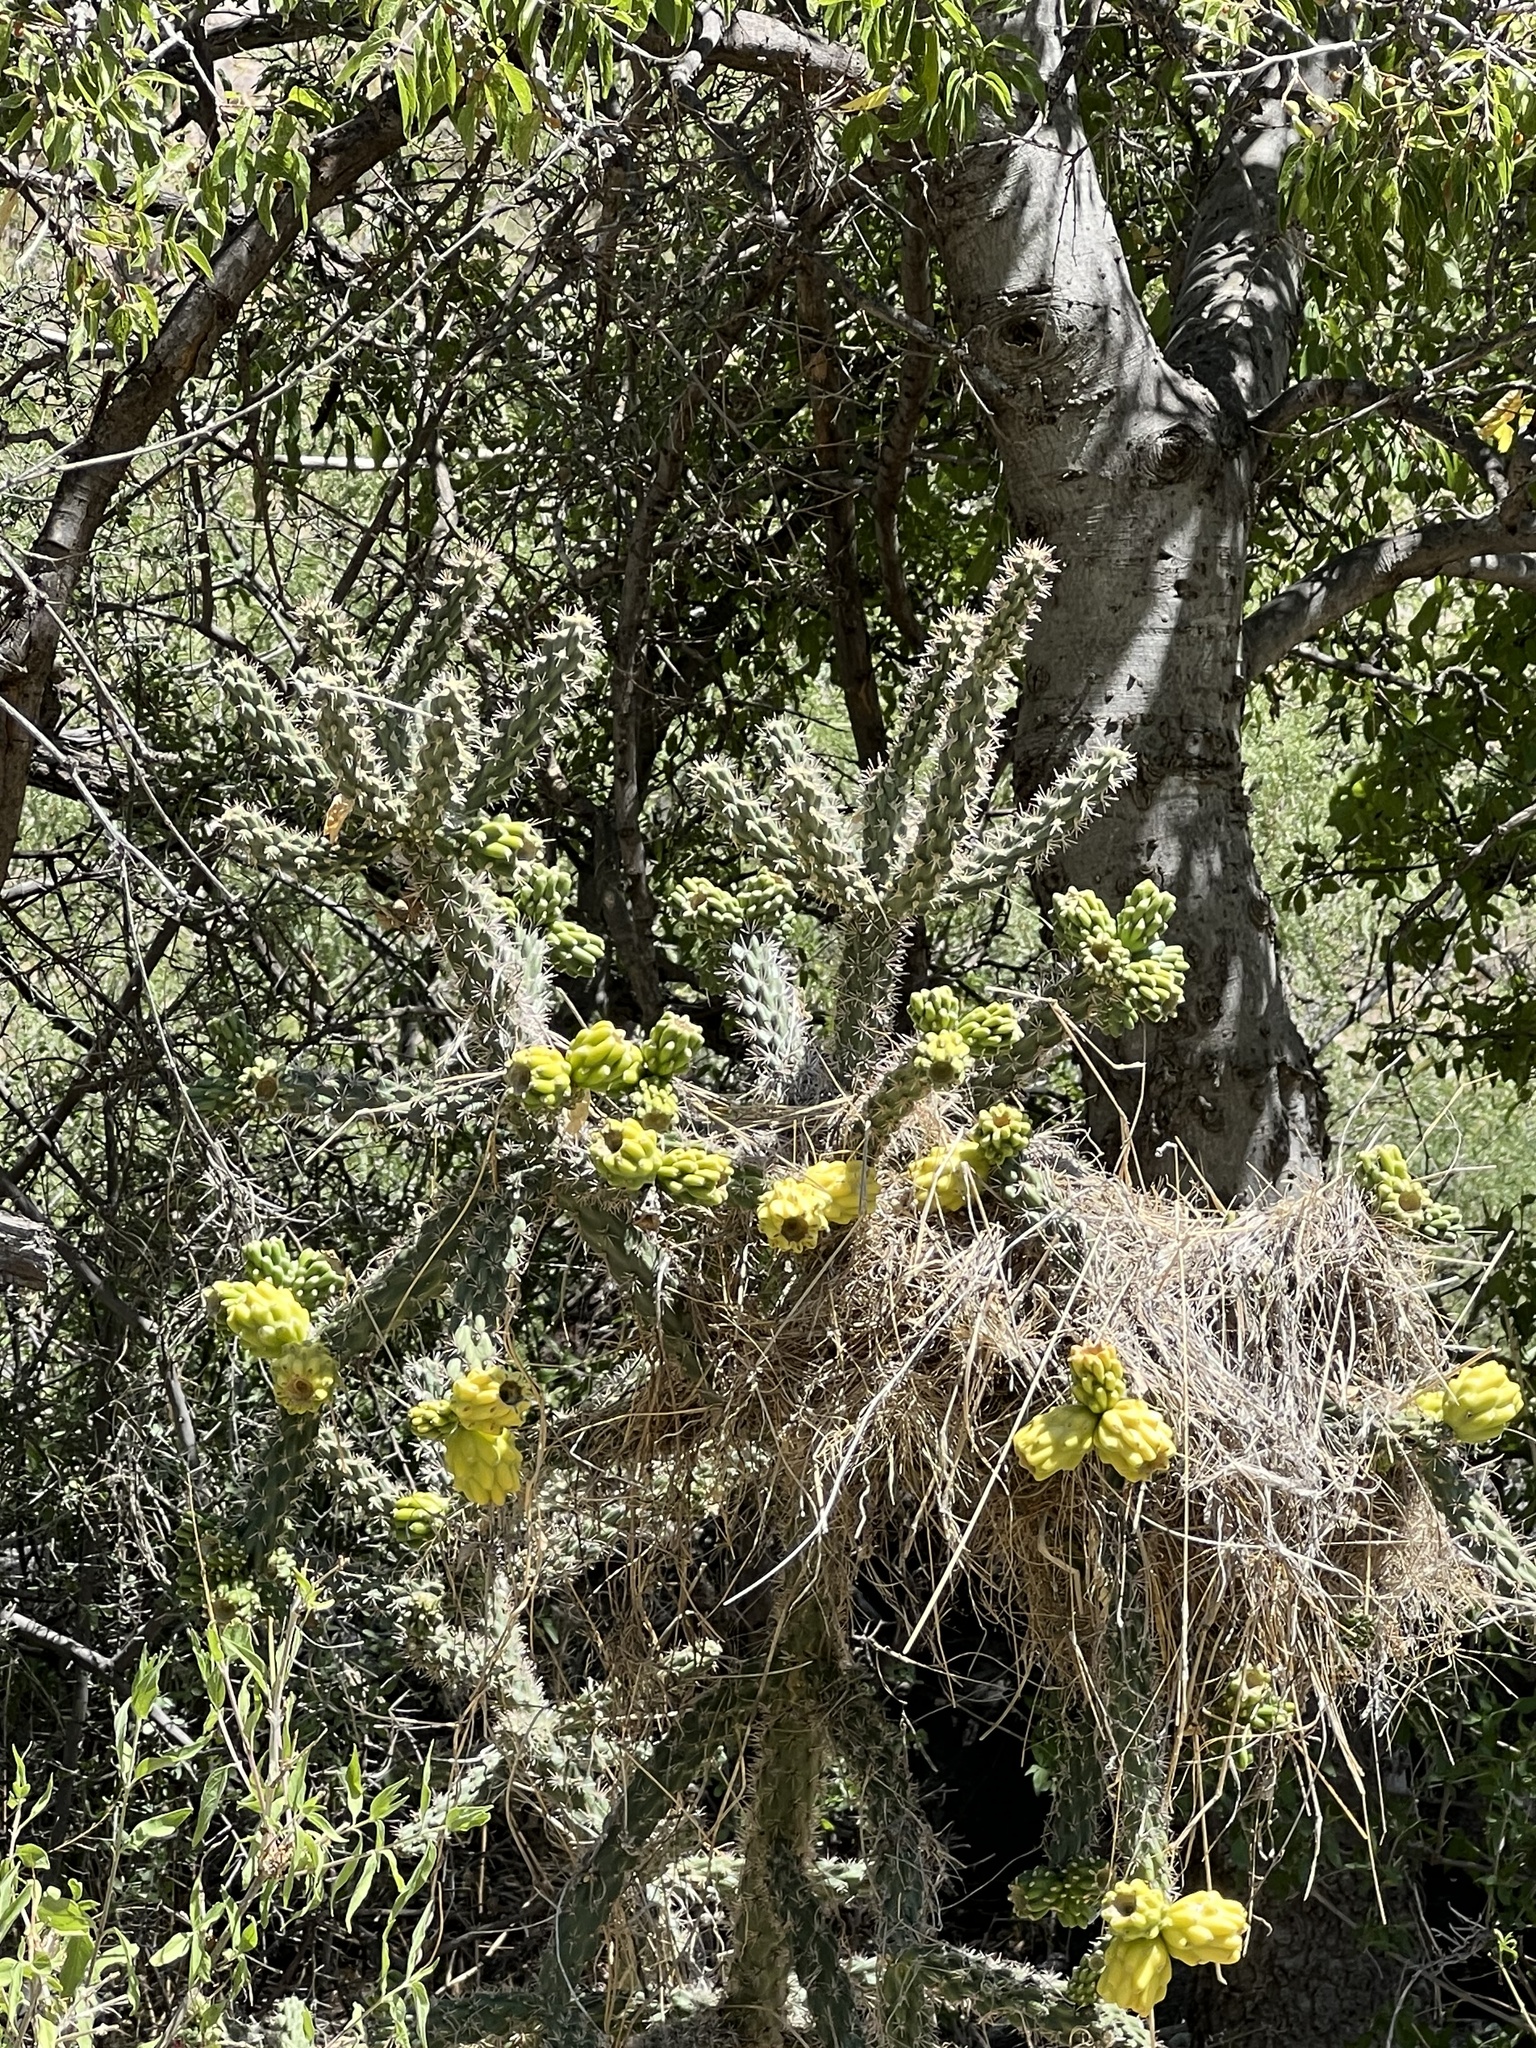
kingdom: Plantae
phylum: Tracheophyta
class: Magnoliopsida
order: Caryophyllales
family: Cactaceae
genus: Cylindropuntia
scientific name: Cylindropuntia imbricata
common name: Candelabrum cactus
